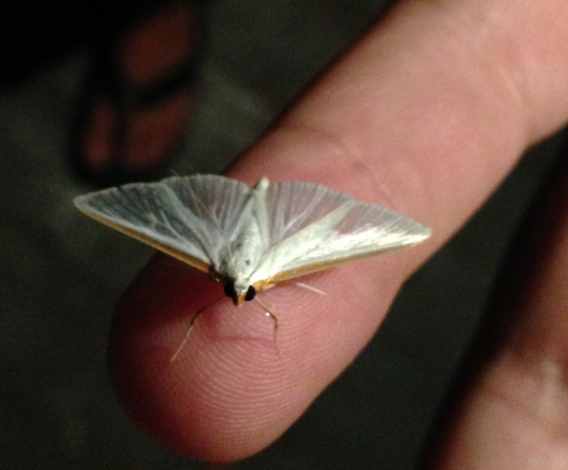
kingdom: Animalia
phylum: Arthropoda
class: Insecta
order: Lepidoptera
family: Crambidae
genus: Palpita
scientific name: Palpita kimballi
